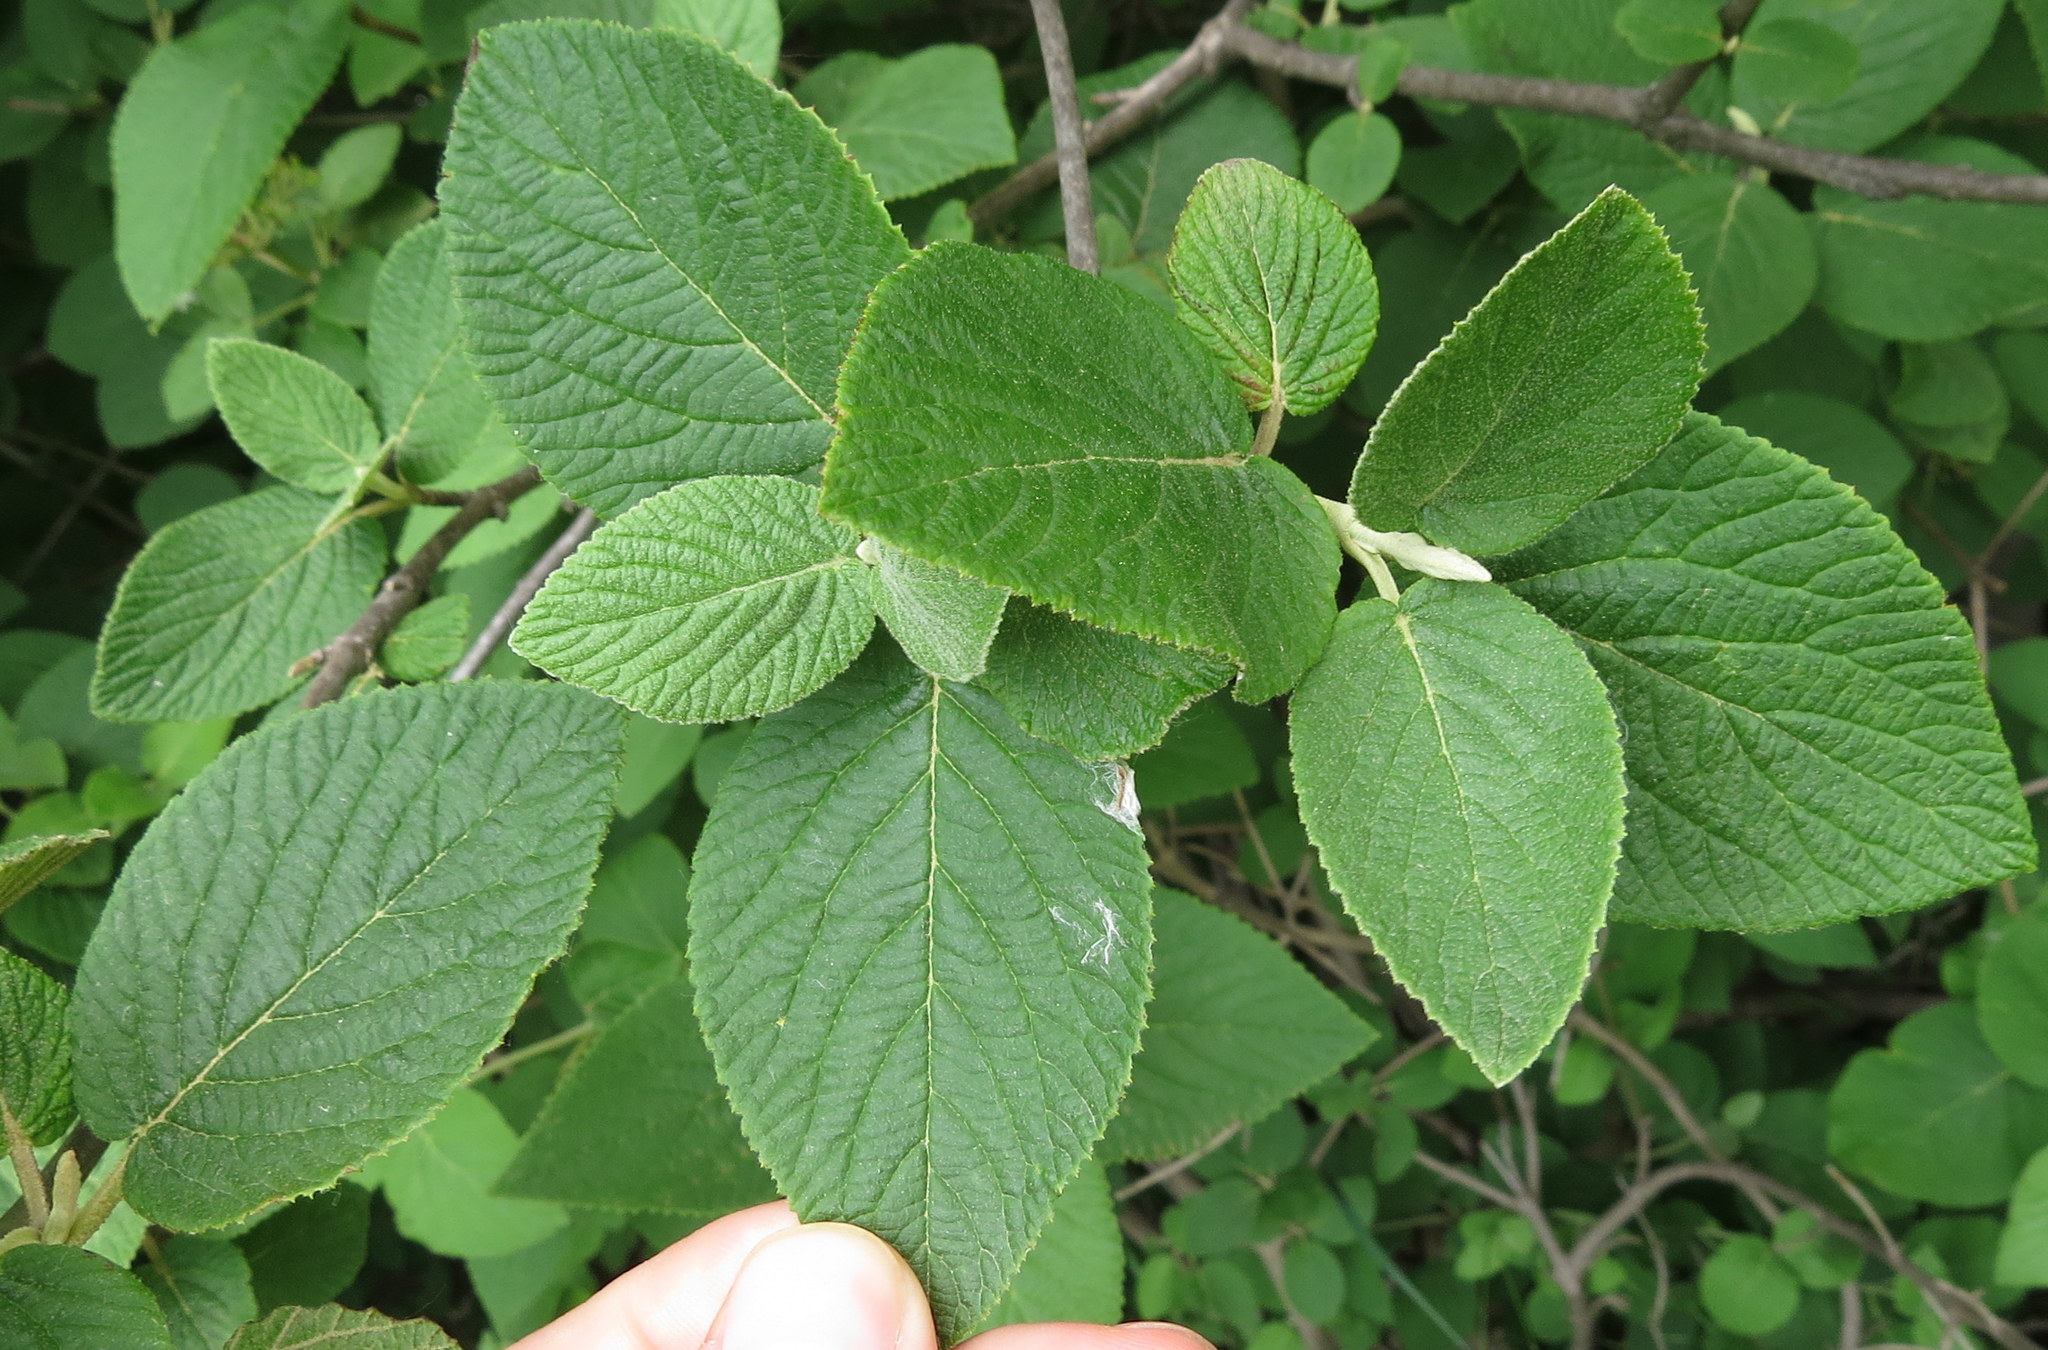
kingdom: Plantae
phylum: Tracheophyta
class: Magnoliopsida
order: Dipsacales
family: Viburnaceae
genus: Viburnum
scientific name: Viburnum lantana
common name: Wayfaring tree
